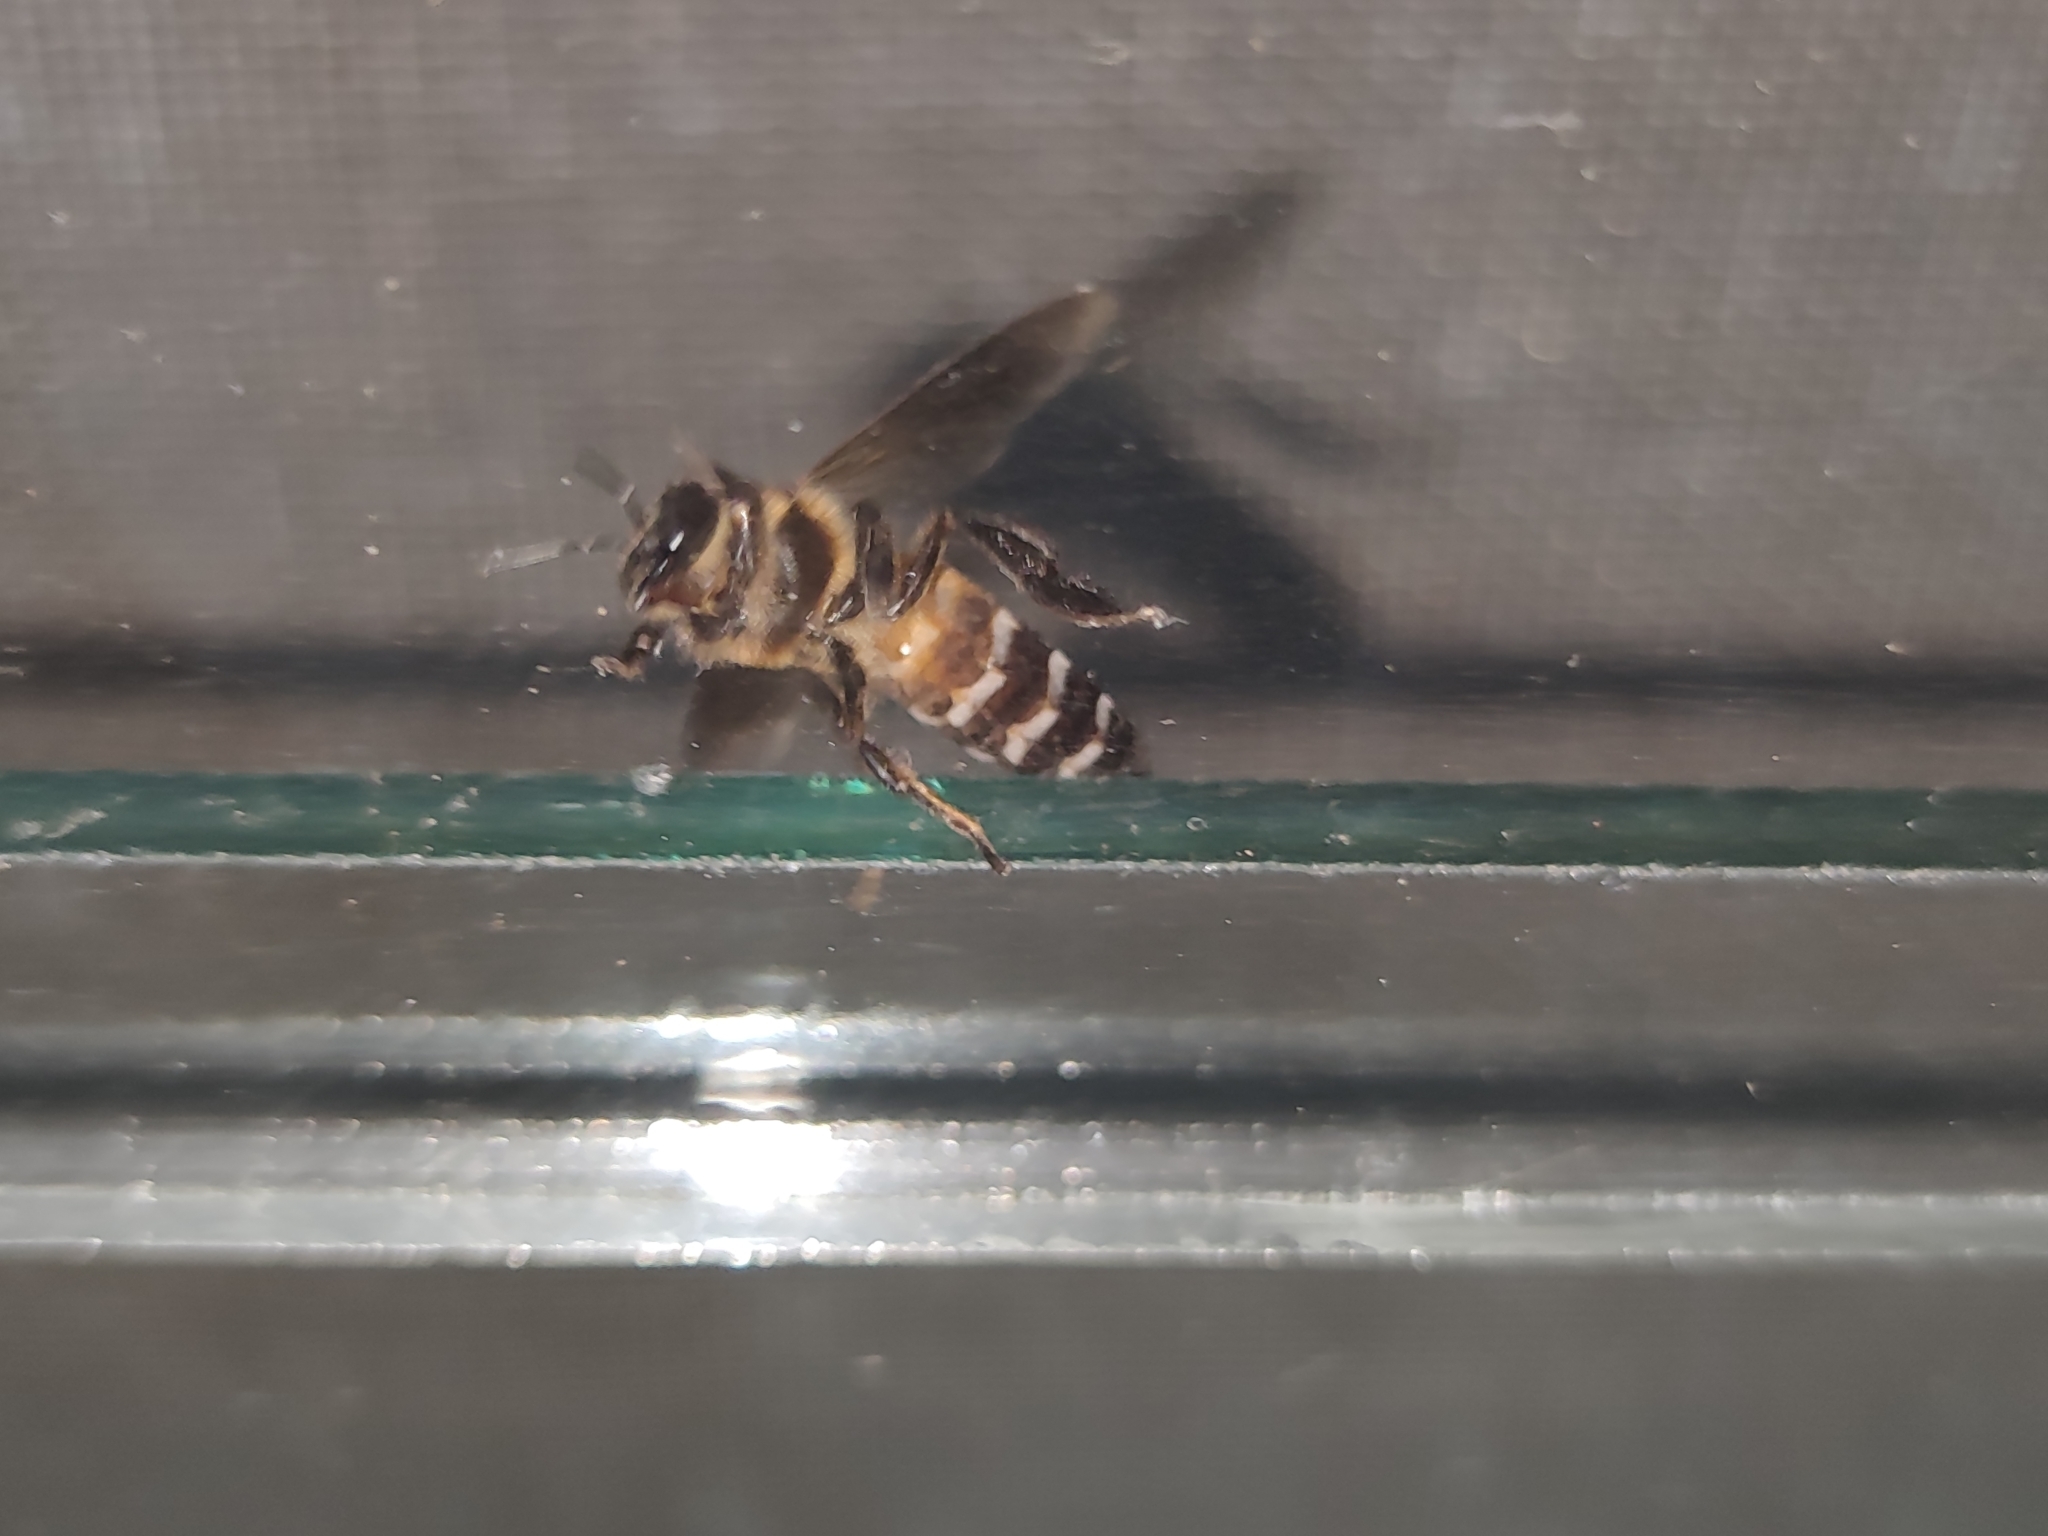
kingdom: Animalia
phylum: Arthropoda
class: Insecta
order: Hymenoptera
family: Apidae
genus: Apis
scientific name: Apis dorsata
